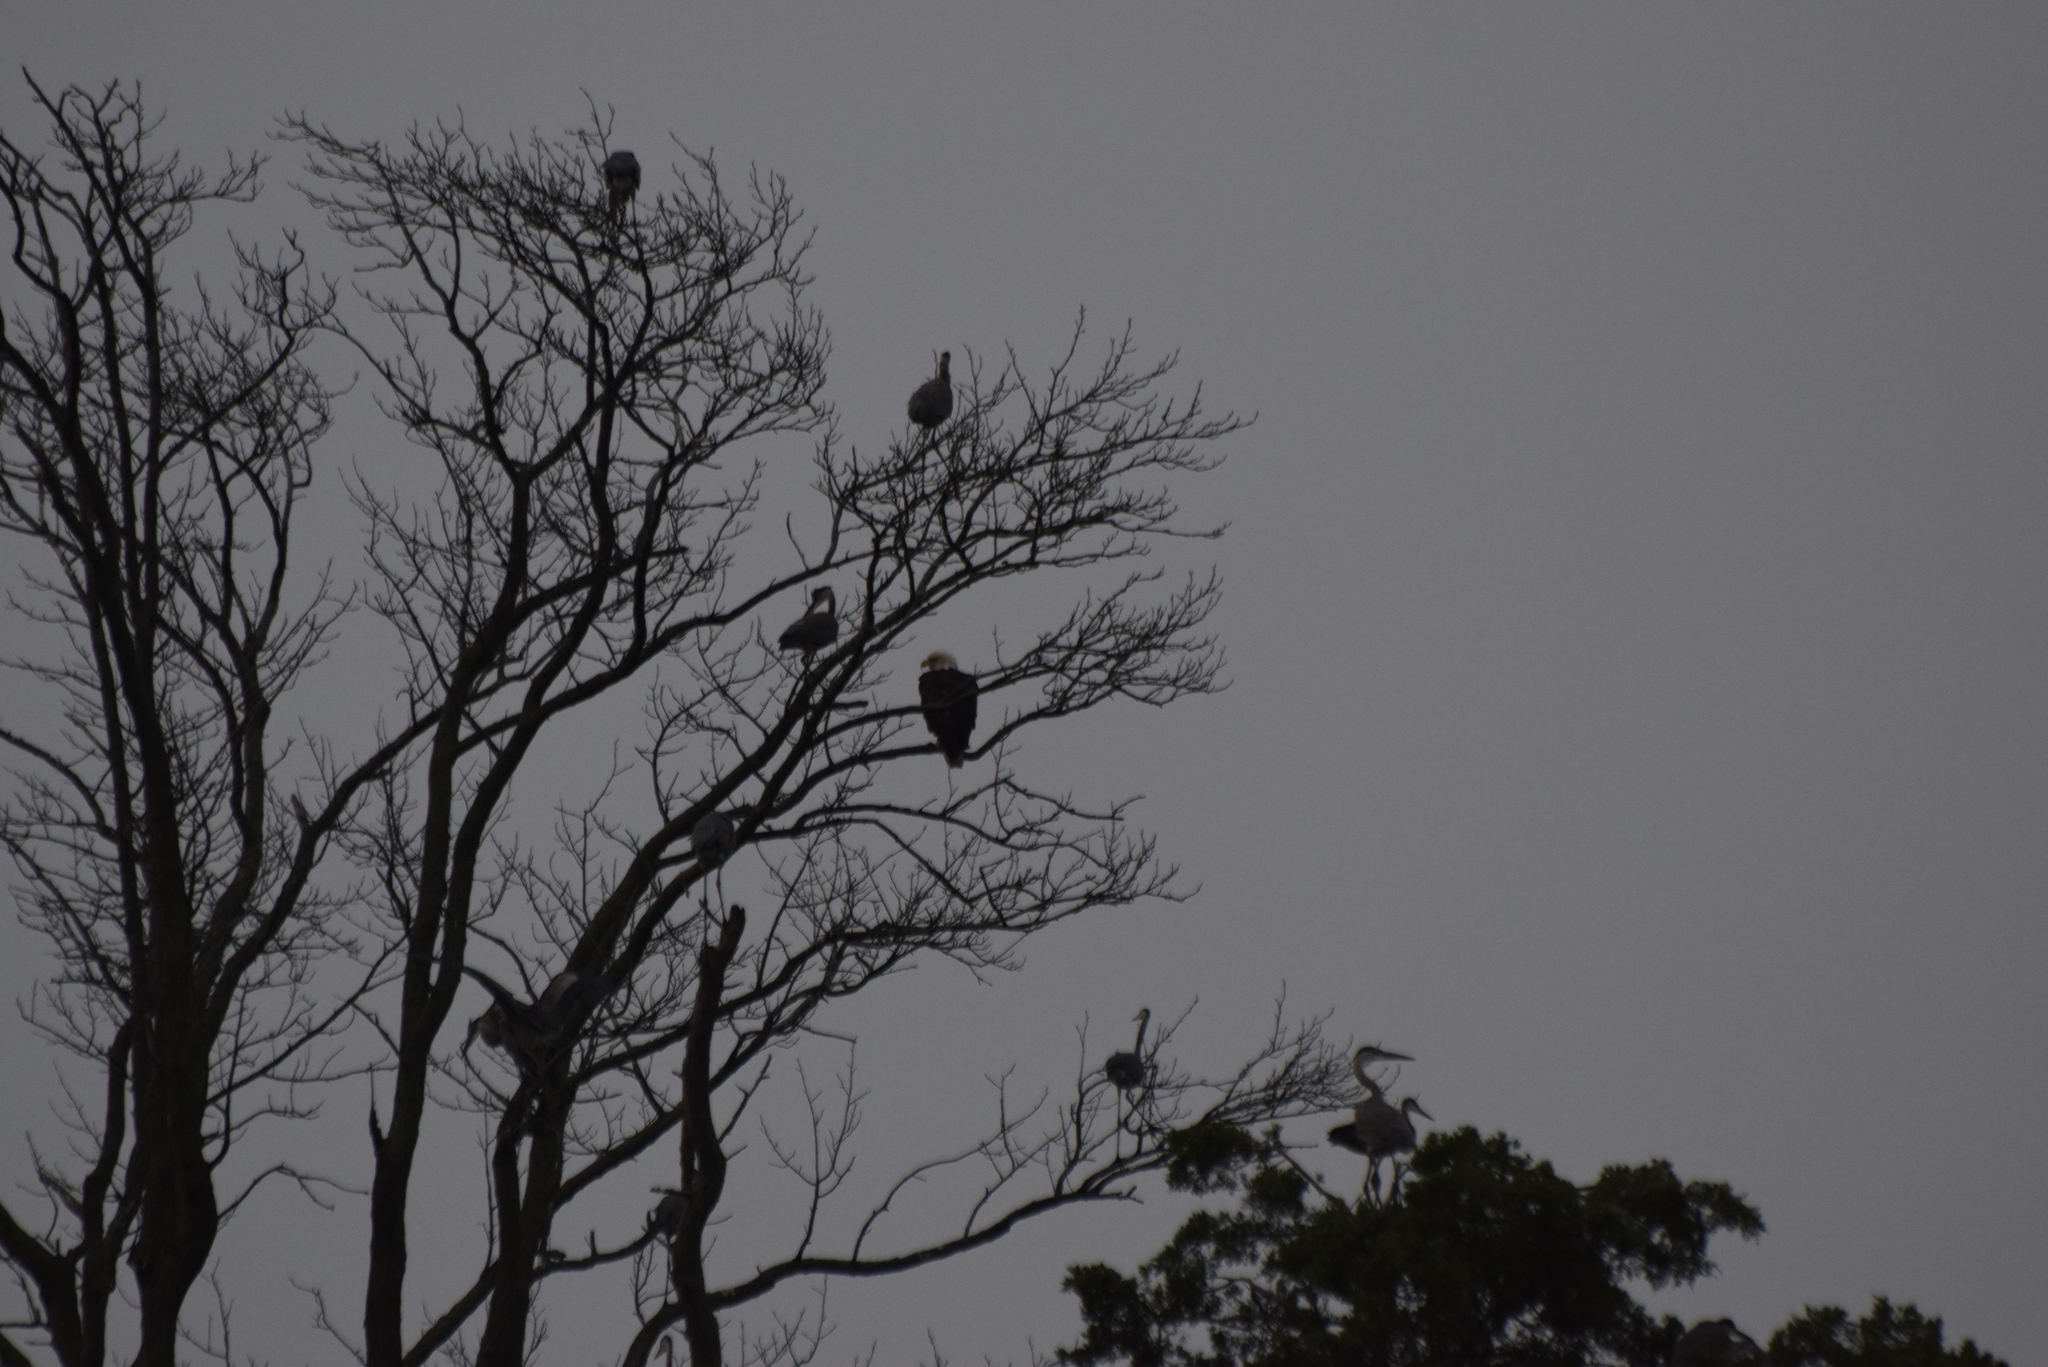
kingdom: Animalia
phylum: Chordata
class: Aves
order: Accipitriformes
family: Accipitridae
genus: Haliaeetus
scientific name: Haliaeetus leucocephalus
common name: Bald eagle
